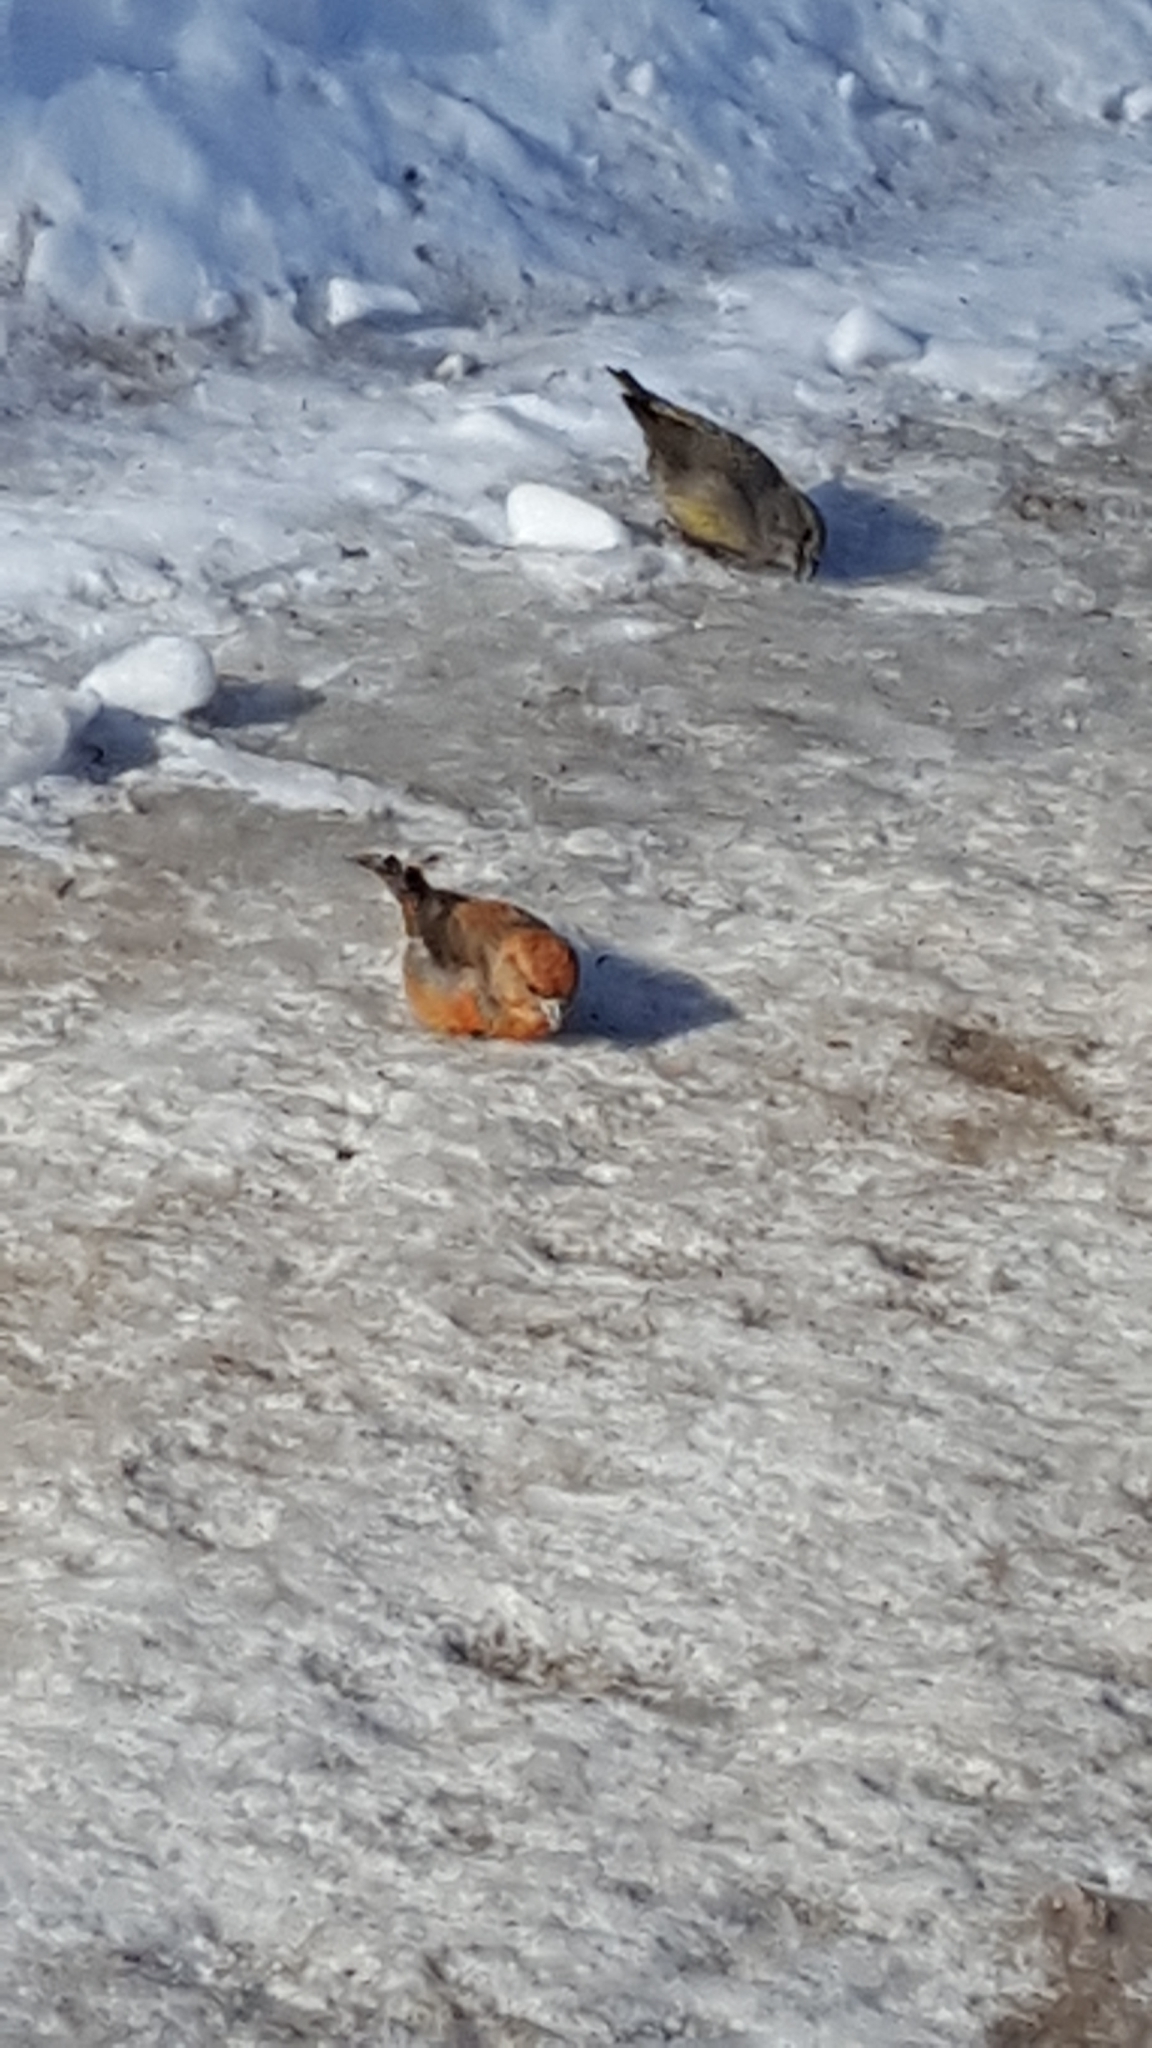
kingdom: Animalia
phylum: Chordata
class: Aves
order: Passeriformes
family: Fringillidae
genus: Loxia
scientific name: Loxia curvirostra
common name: Red crossbill
